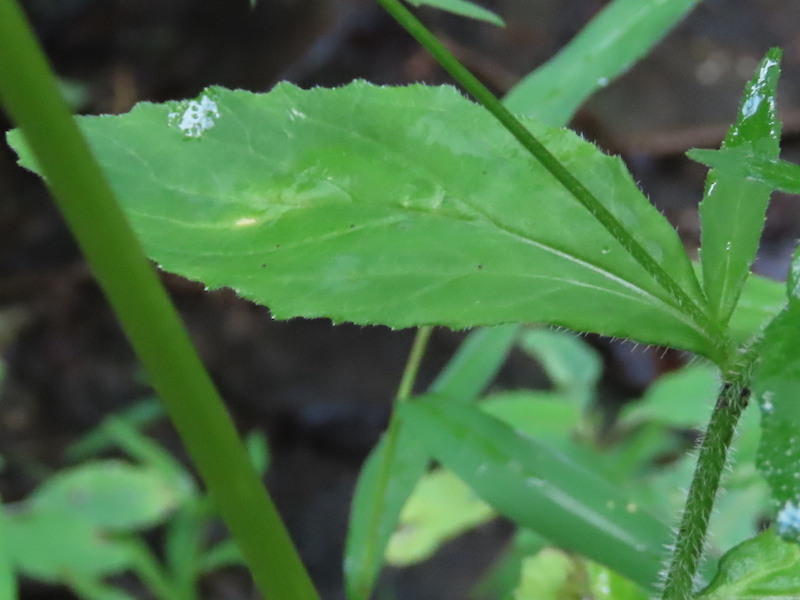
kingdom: Plantae
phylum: Tracheophyta
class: Magnoliopsida
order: Asterales
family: Campanulaceae
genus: Lobelia
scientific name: Lobelia inflata
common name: Indian tobacco
